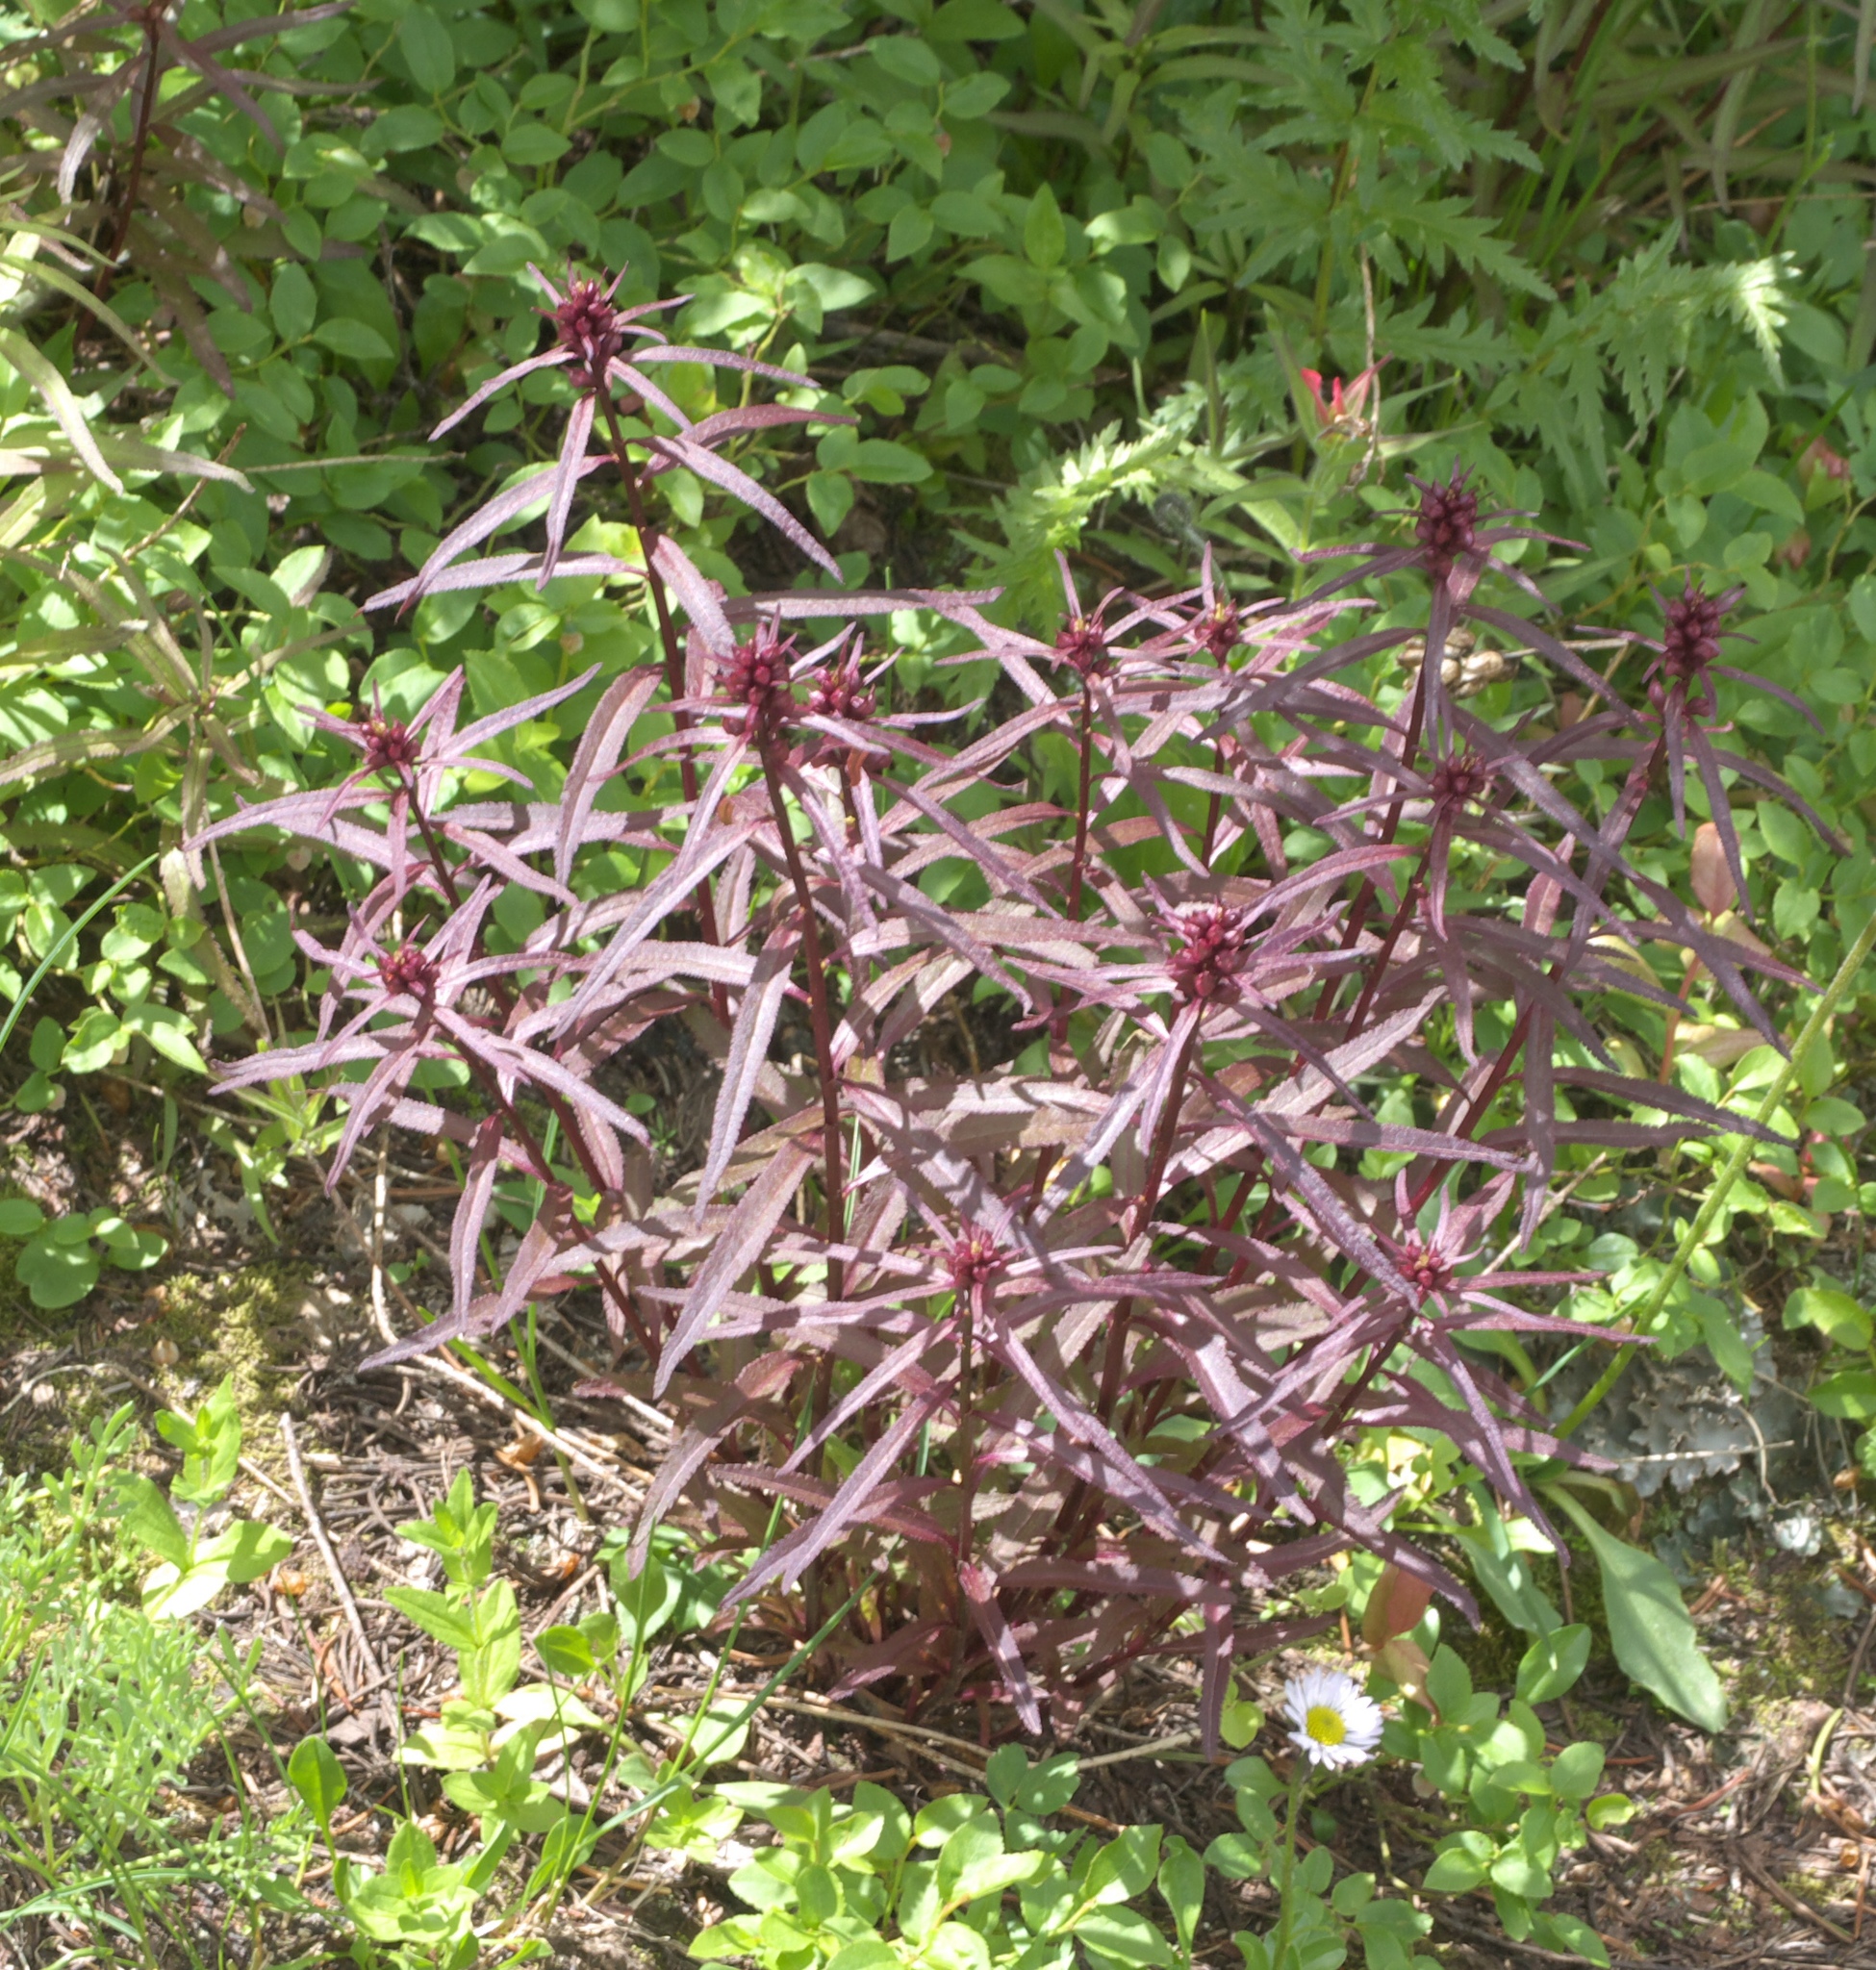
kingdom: Plantae
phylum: Tracheophyta
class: Magnoliopsida
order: Lamiales
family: Orobanchaceae
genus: Pedicularis
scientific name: Pedicularis racemosa
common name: Leafy lousewort
